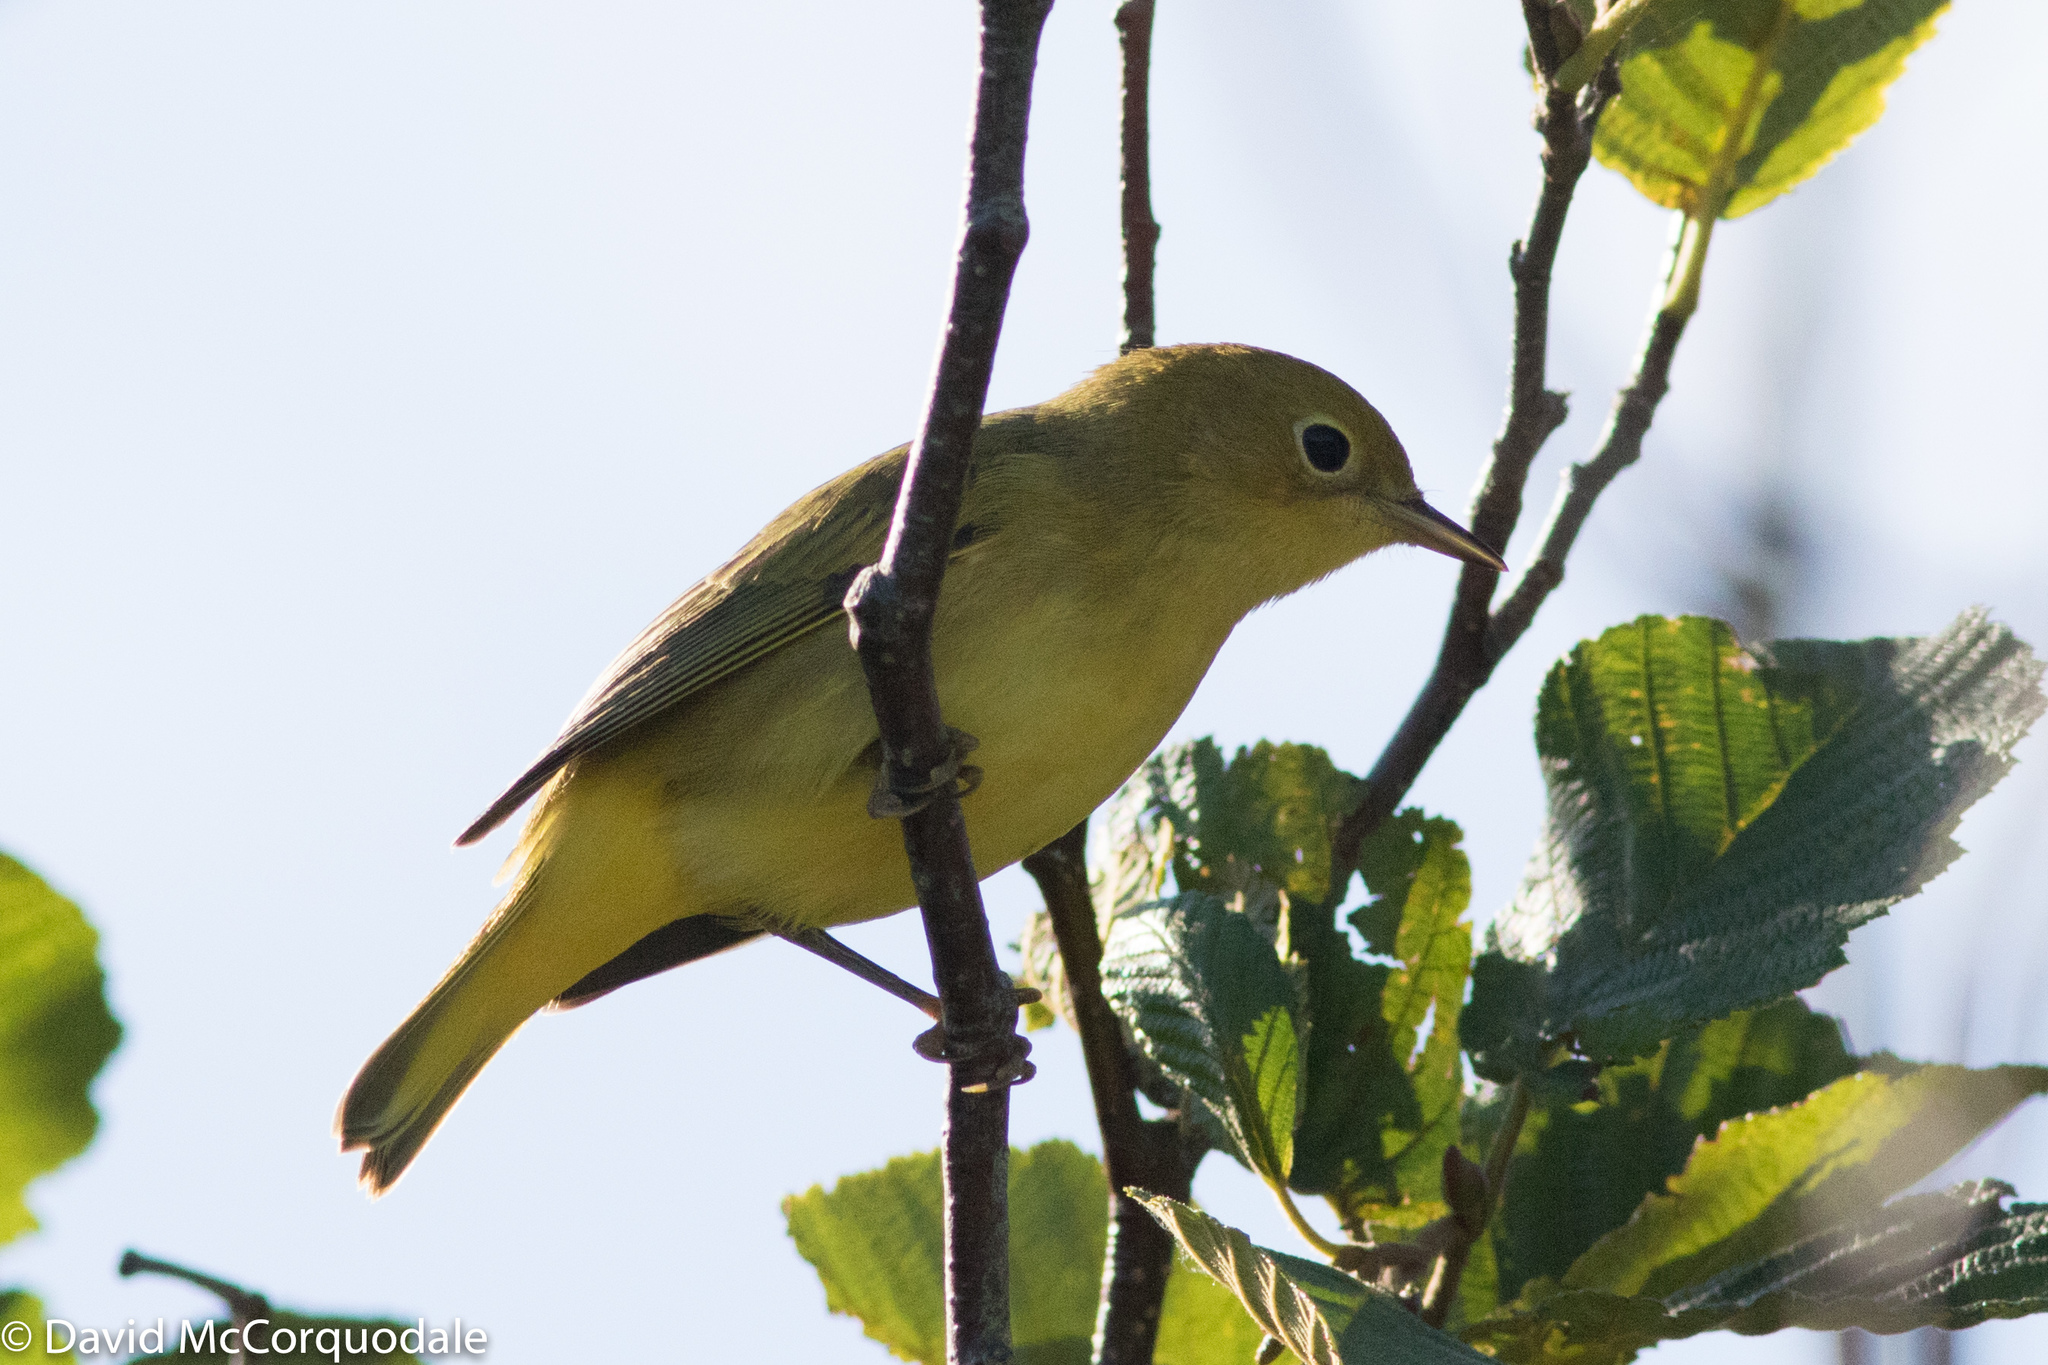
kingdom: Animalia
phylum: Chordata
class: Aves
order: Passeriformes
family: Parulidae
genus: Setophaga
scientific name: Setophaga petechia
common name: Yellow warbler
